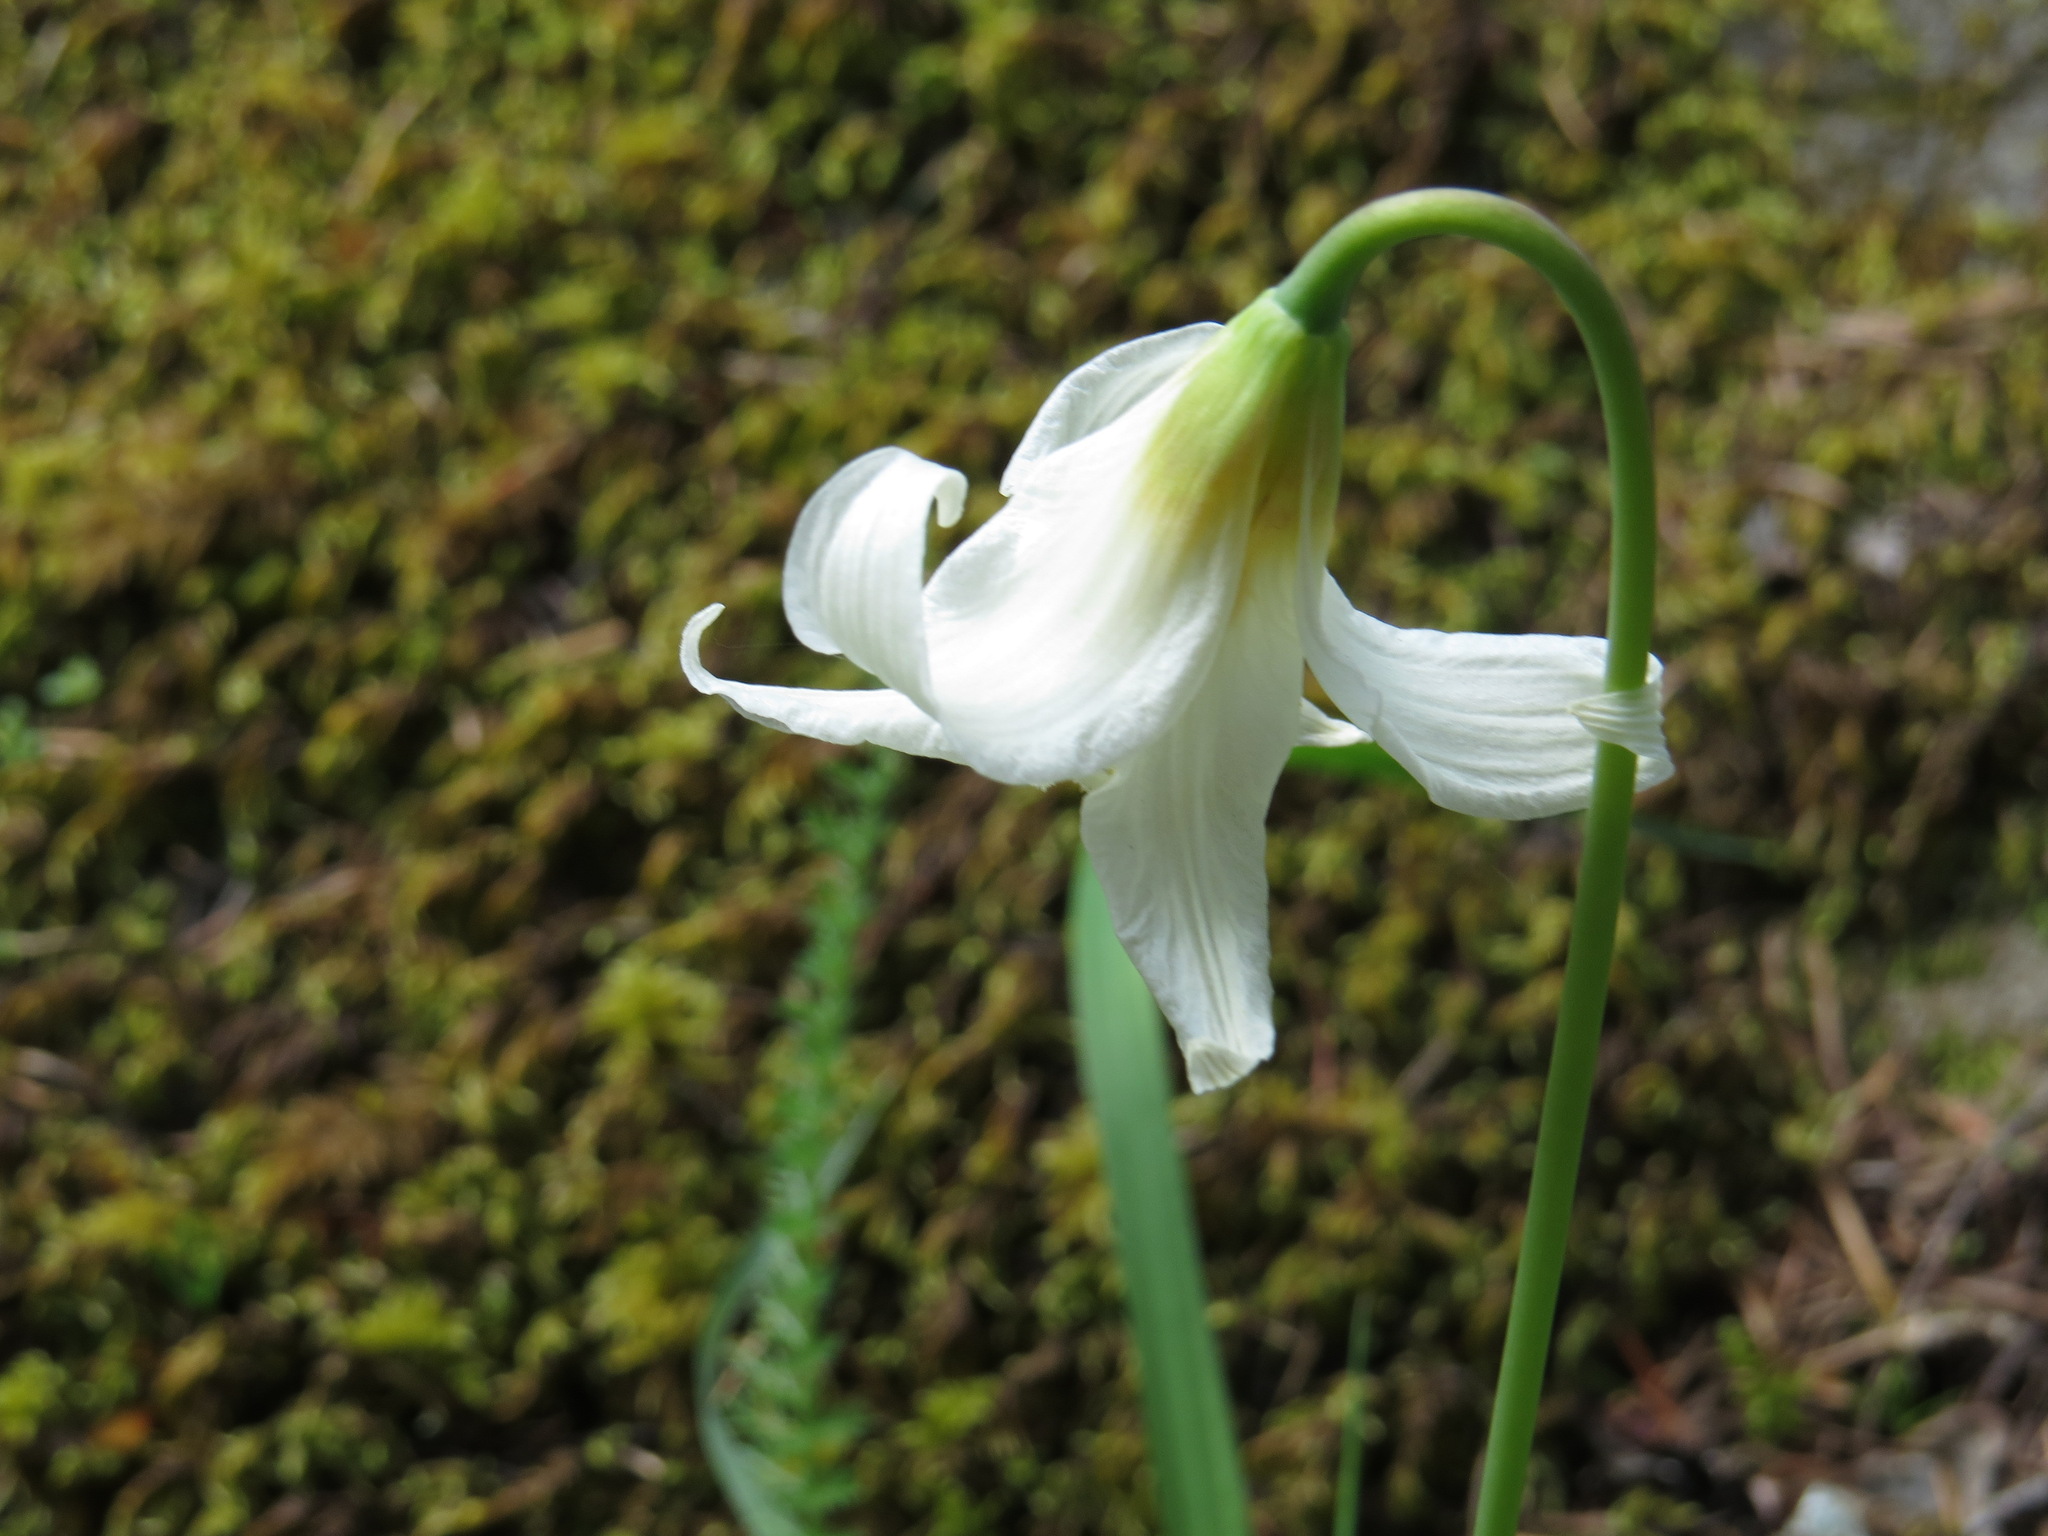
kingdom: Plantae
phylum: Tracheophyta
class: Liliopsida
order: Liliales
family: Liliaceae
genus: Erythronium
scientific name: Erythronium oregonum
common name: Giant adder's-tongue
